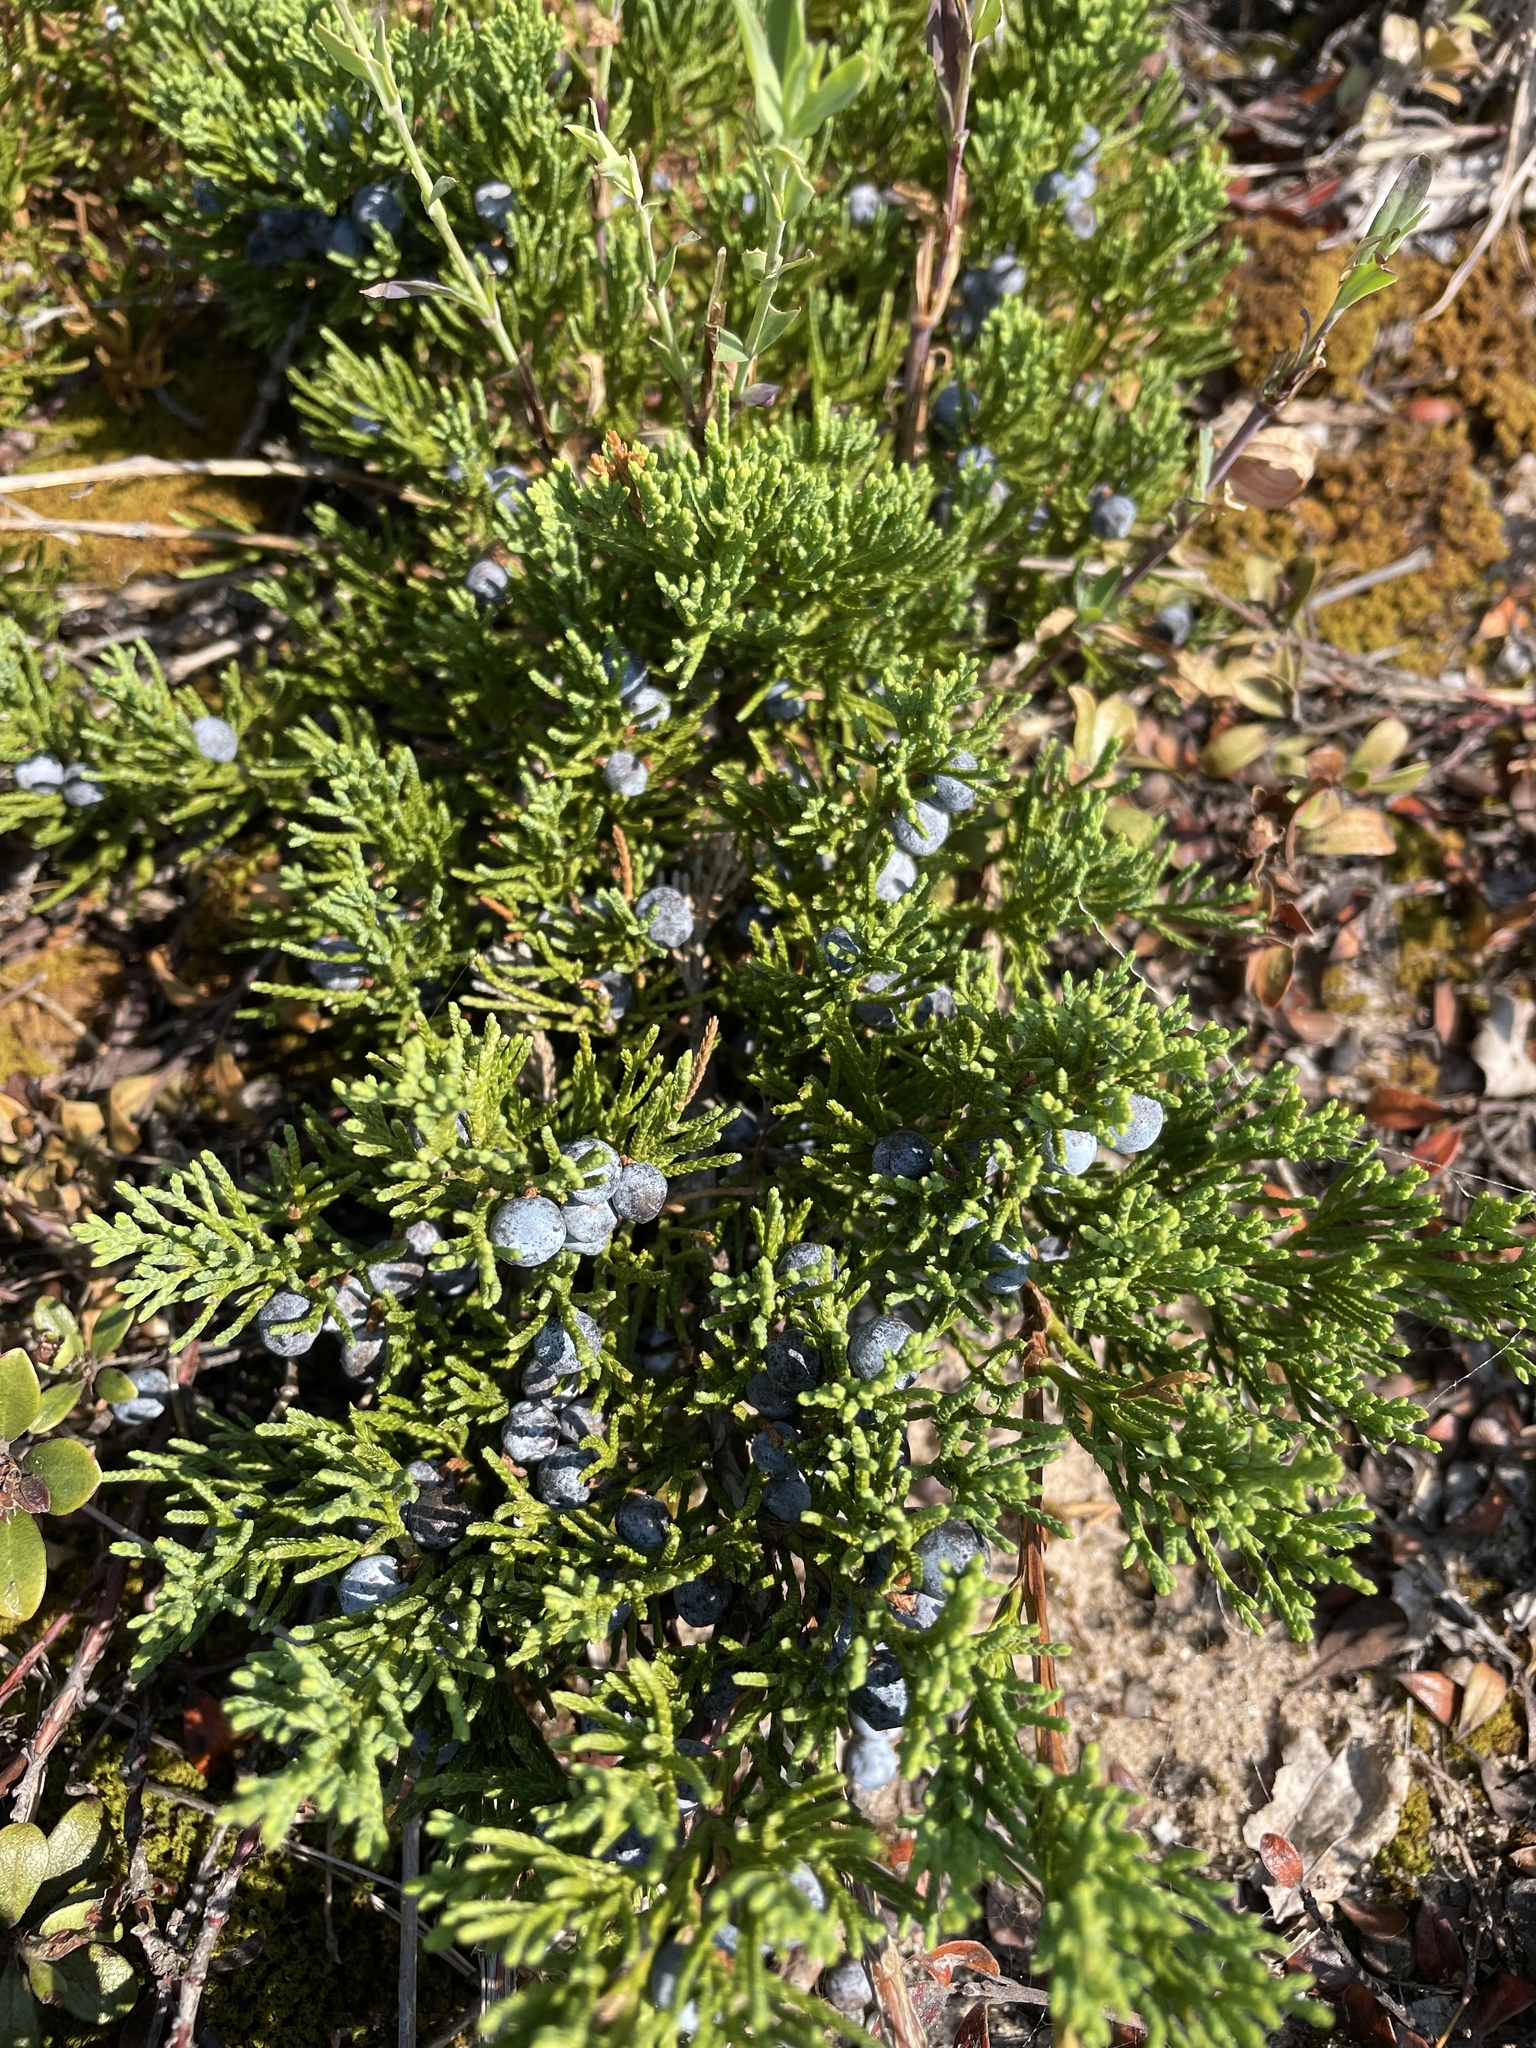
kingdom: Plantae
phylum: Tracheophyta
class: Pinopsida
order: Pinales
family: Cupressaceae
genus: Juniperus
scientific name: Juniperus horizontalis
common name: Creeping juniper
